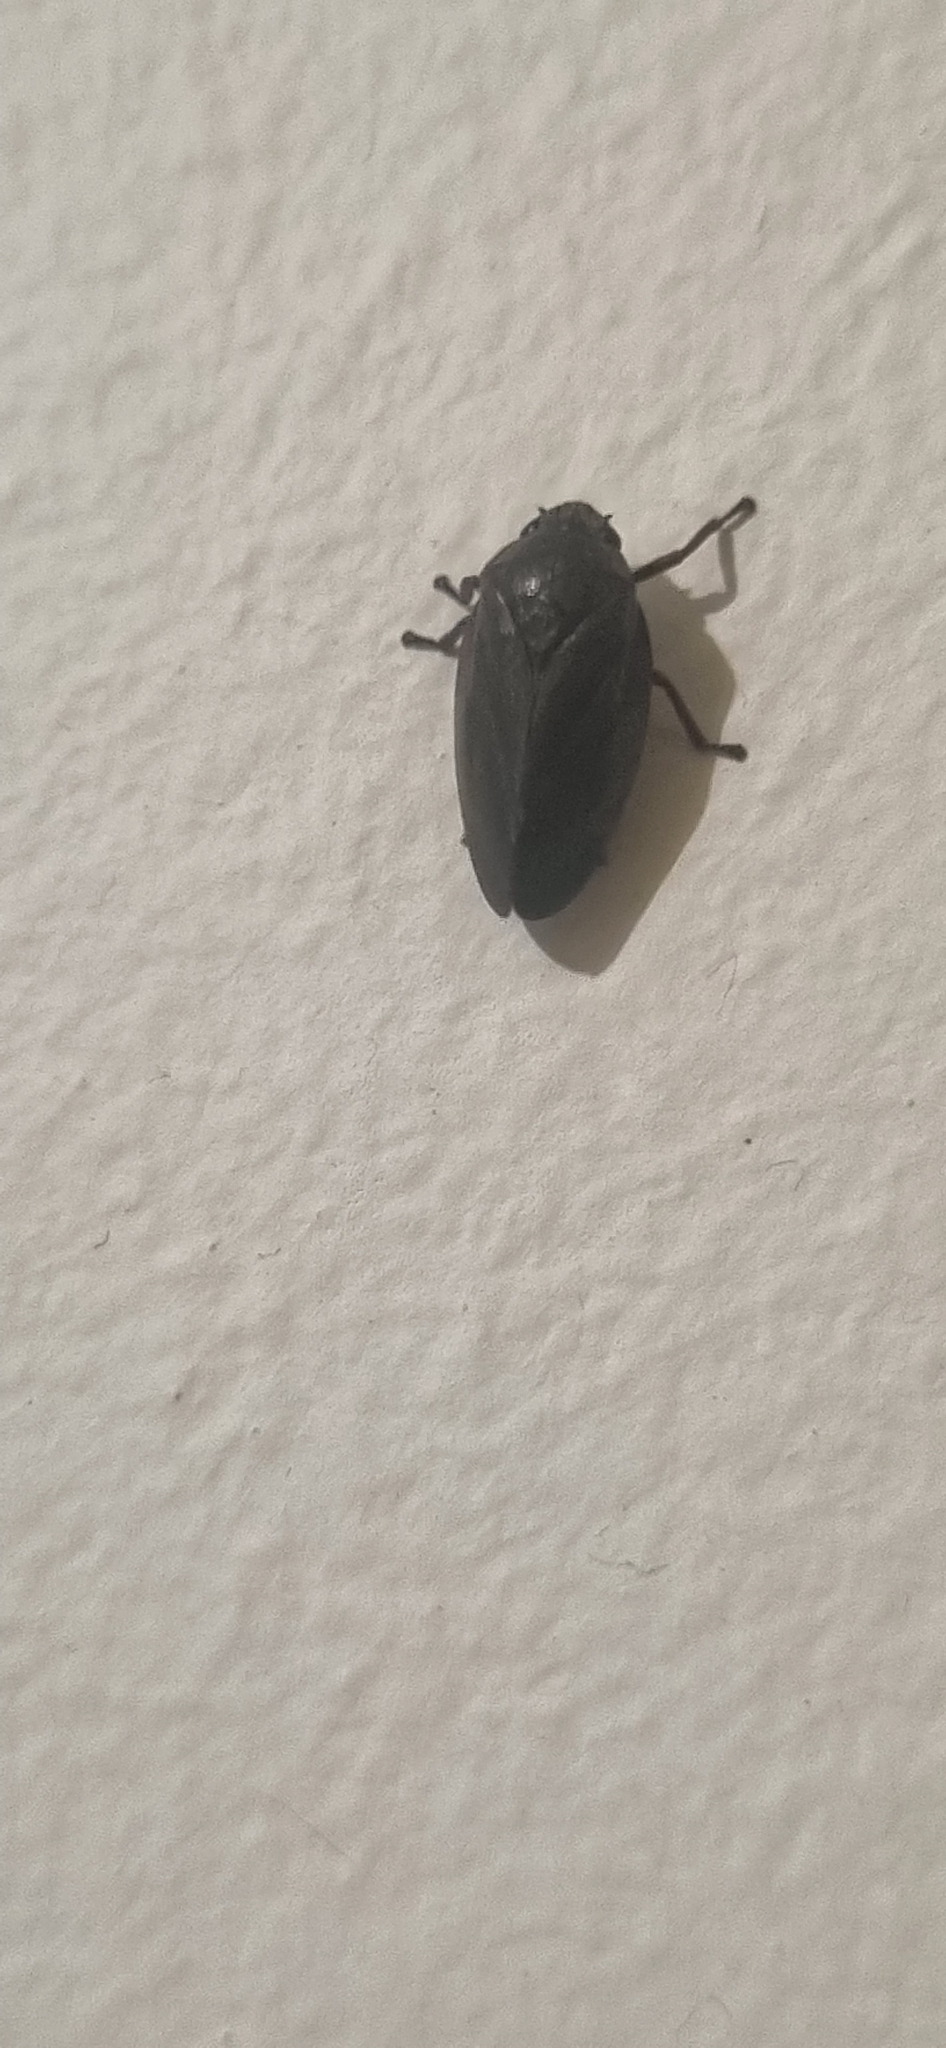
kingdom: Animalia
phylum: Arthropoda
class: Insecta
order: Hemiptera
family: Cercopidae
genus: Deois
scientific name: Deois knoblauchii
